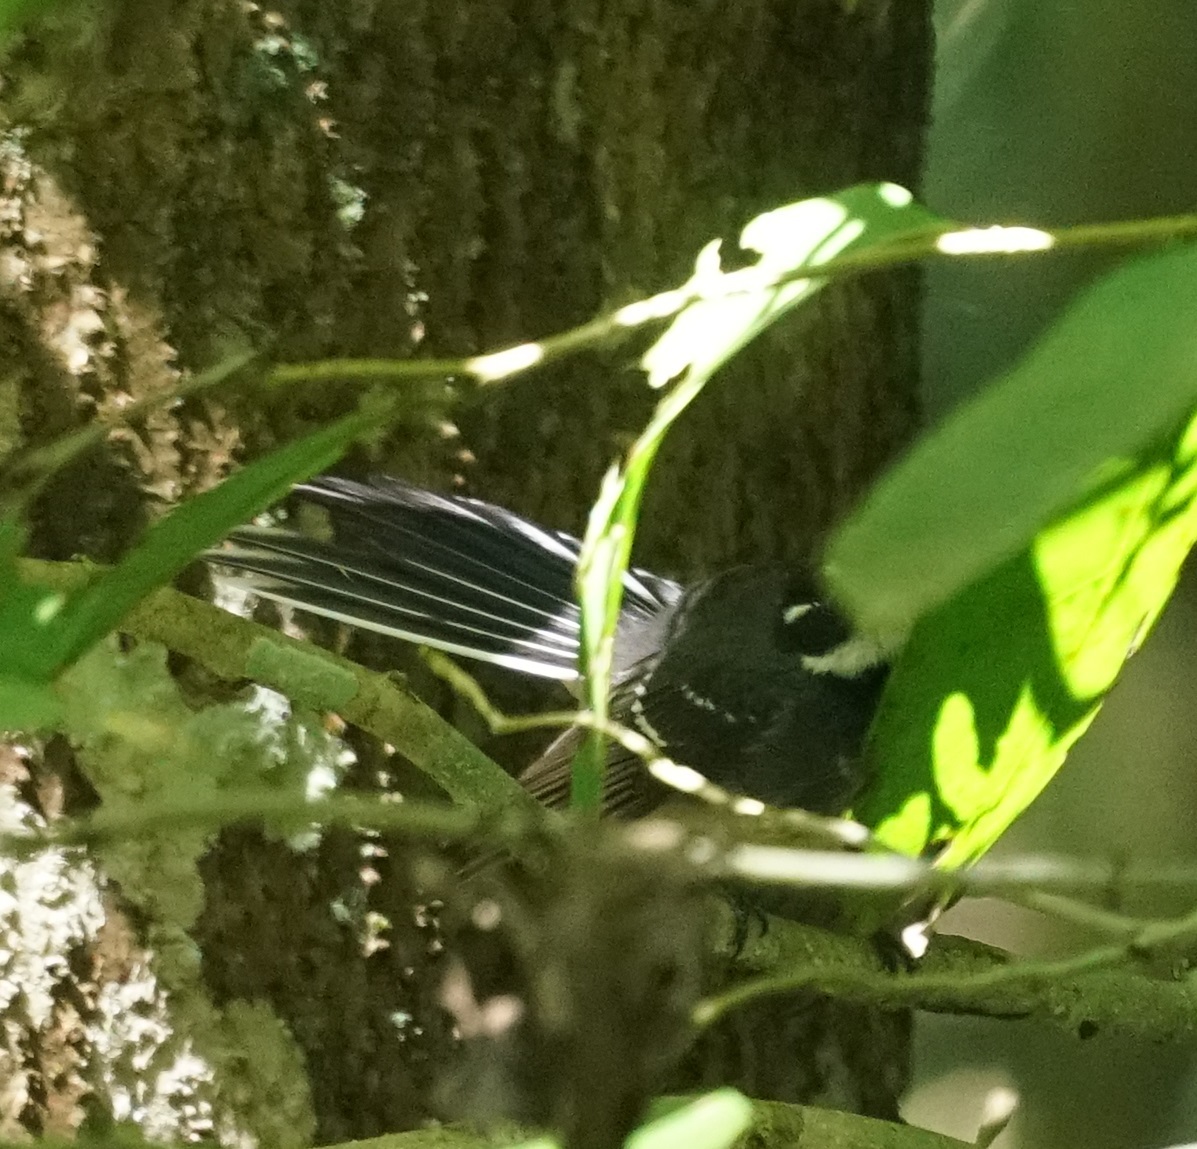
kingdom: Animalia
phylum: Chordata
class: Aves
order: Passeriformes
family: Rhipiduridae
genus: Rhipidura
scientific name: Rhipidura albiscapa
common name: Grey fantail
